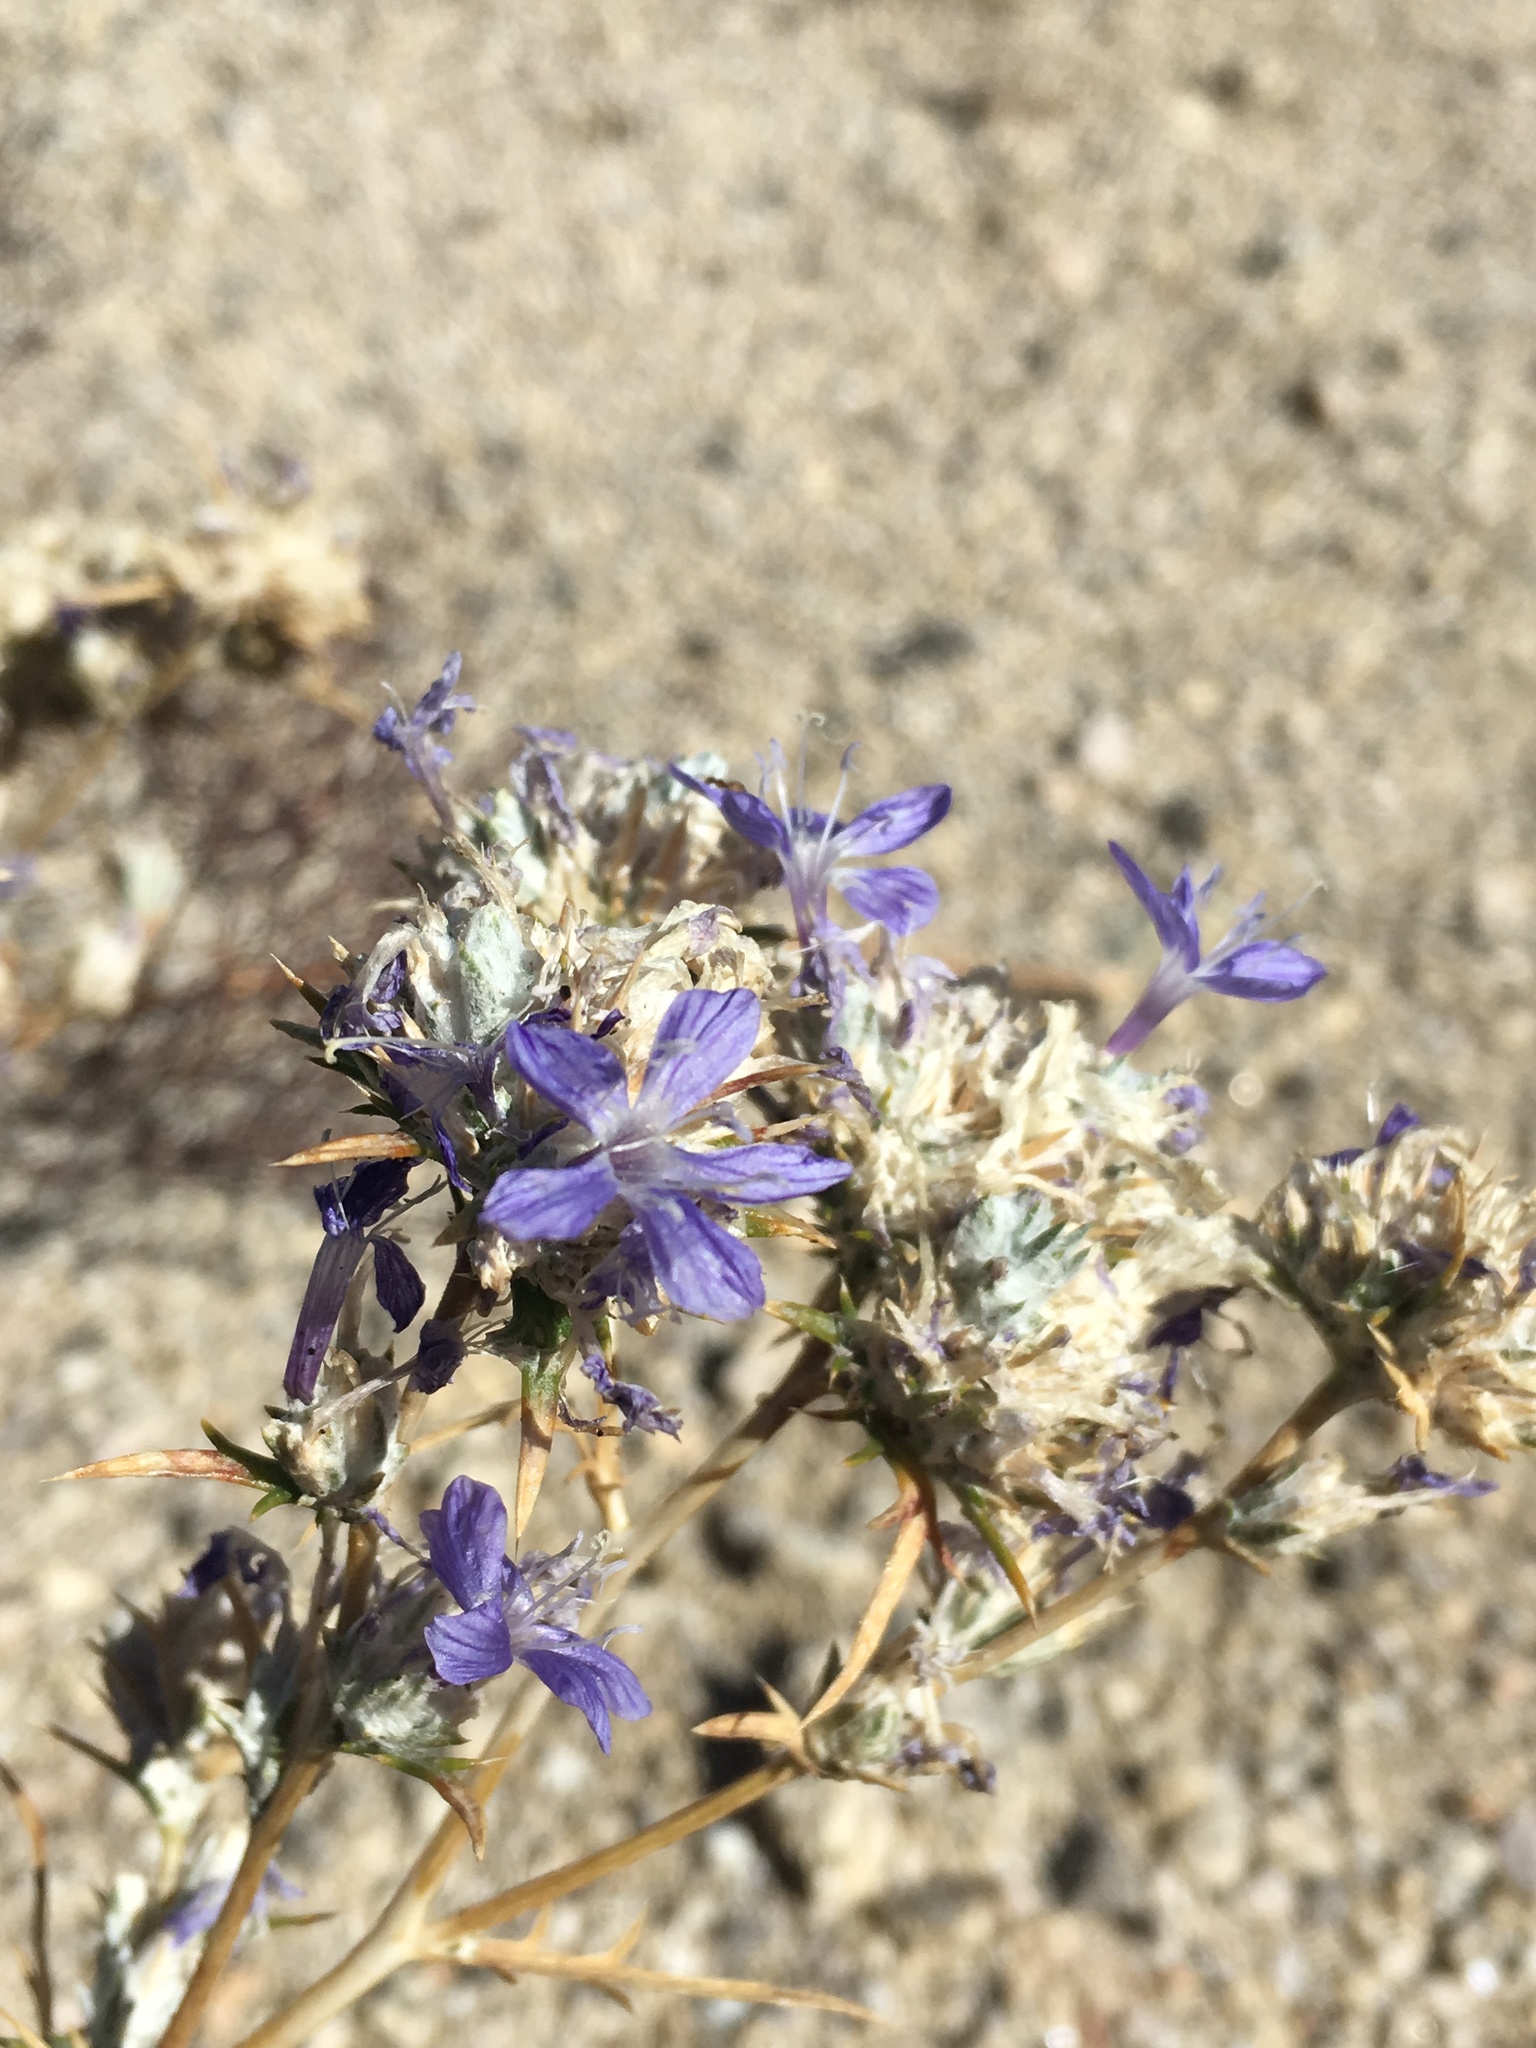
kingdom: Plantae
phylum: Tracheophyta
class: Magnoliopsida
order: Ericales
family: Polemoniaceae
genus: Eriastrum
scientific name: Eriastrum densifolium
